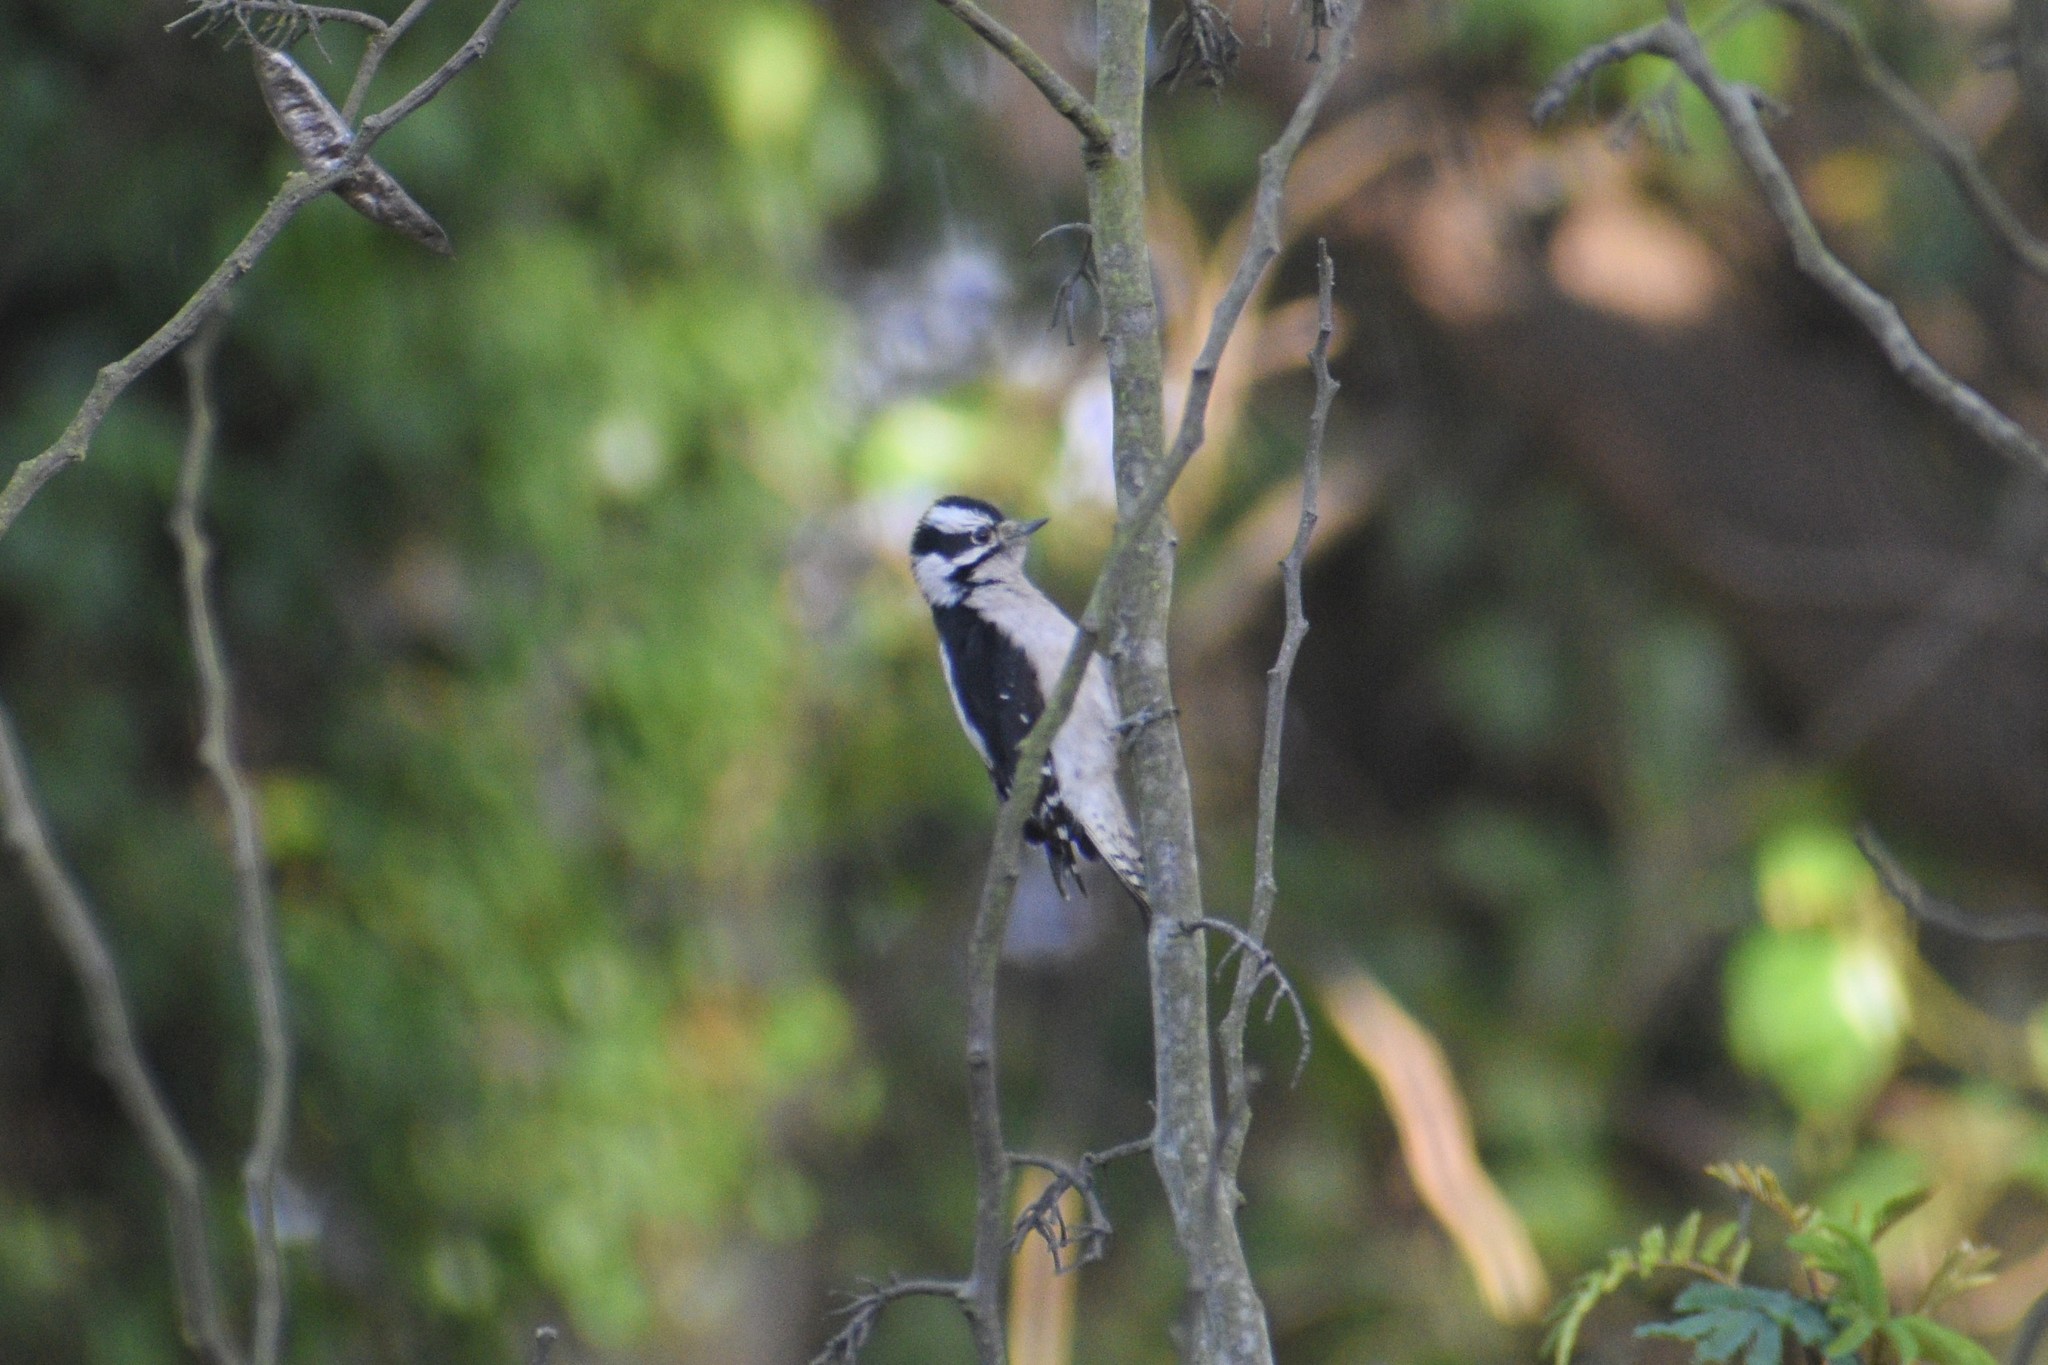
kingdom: Animalia
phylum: Chordata
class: Aves
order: Piciformes
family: Picidae
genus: Dryobates
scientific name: Dryobates pubescens
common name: Downy woodpecker
